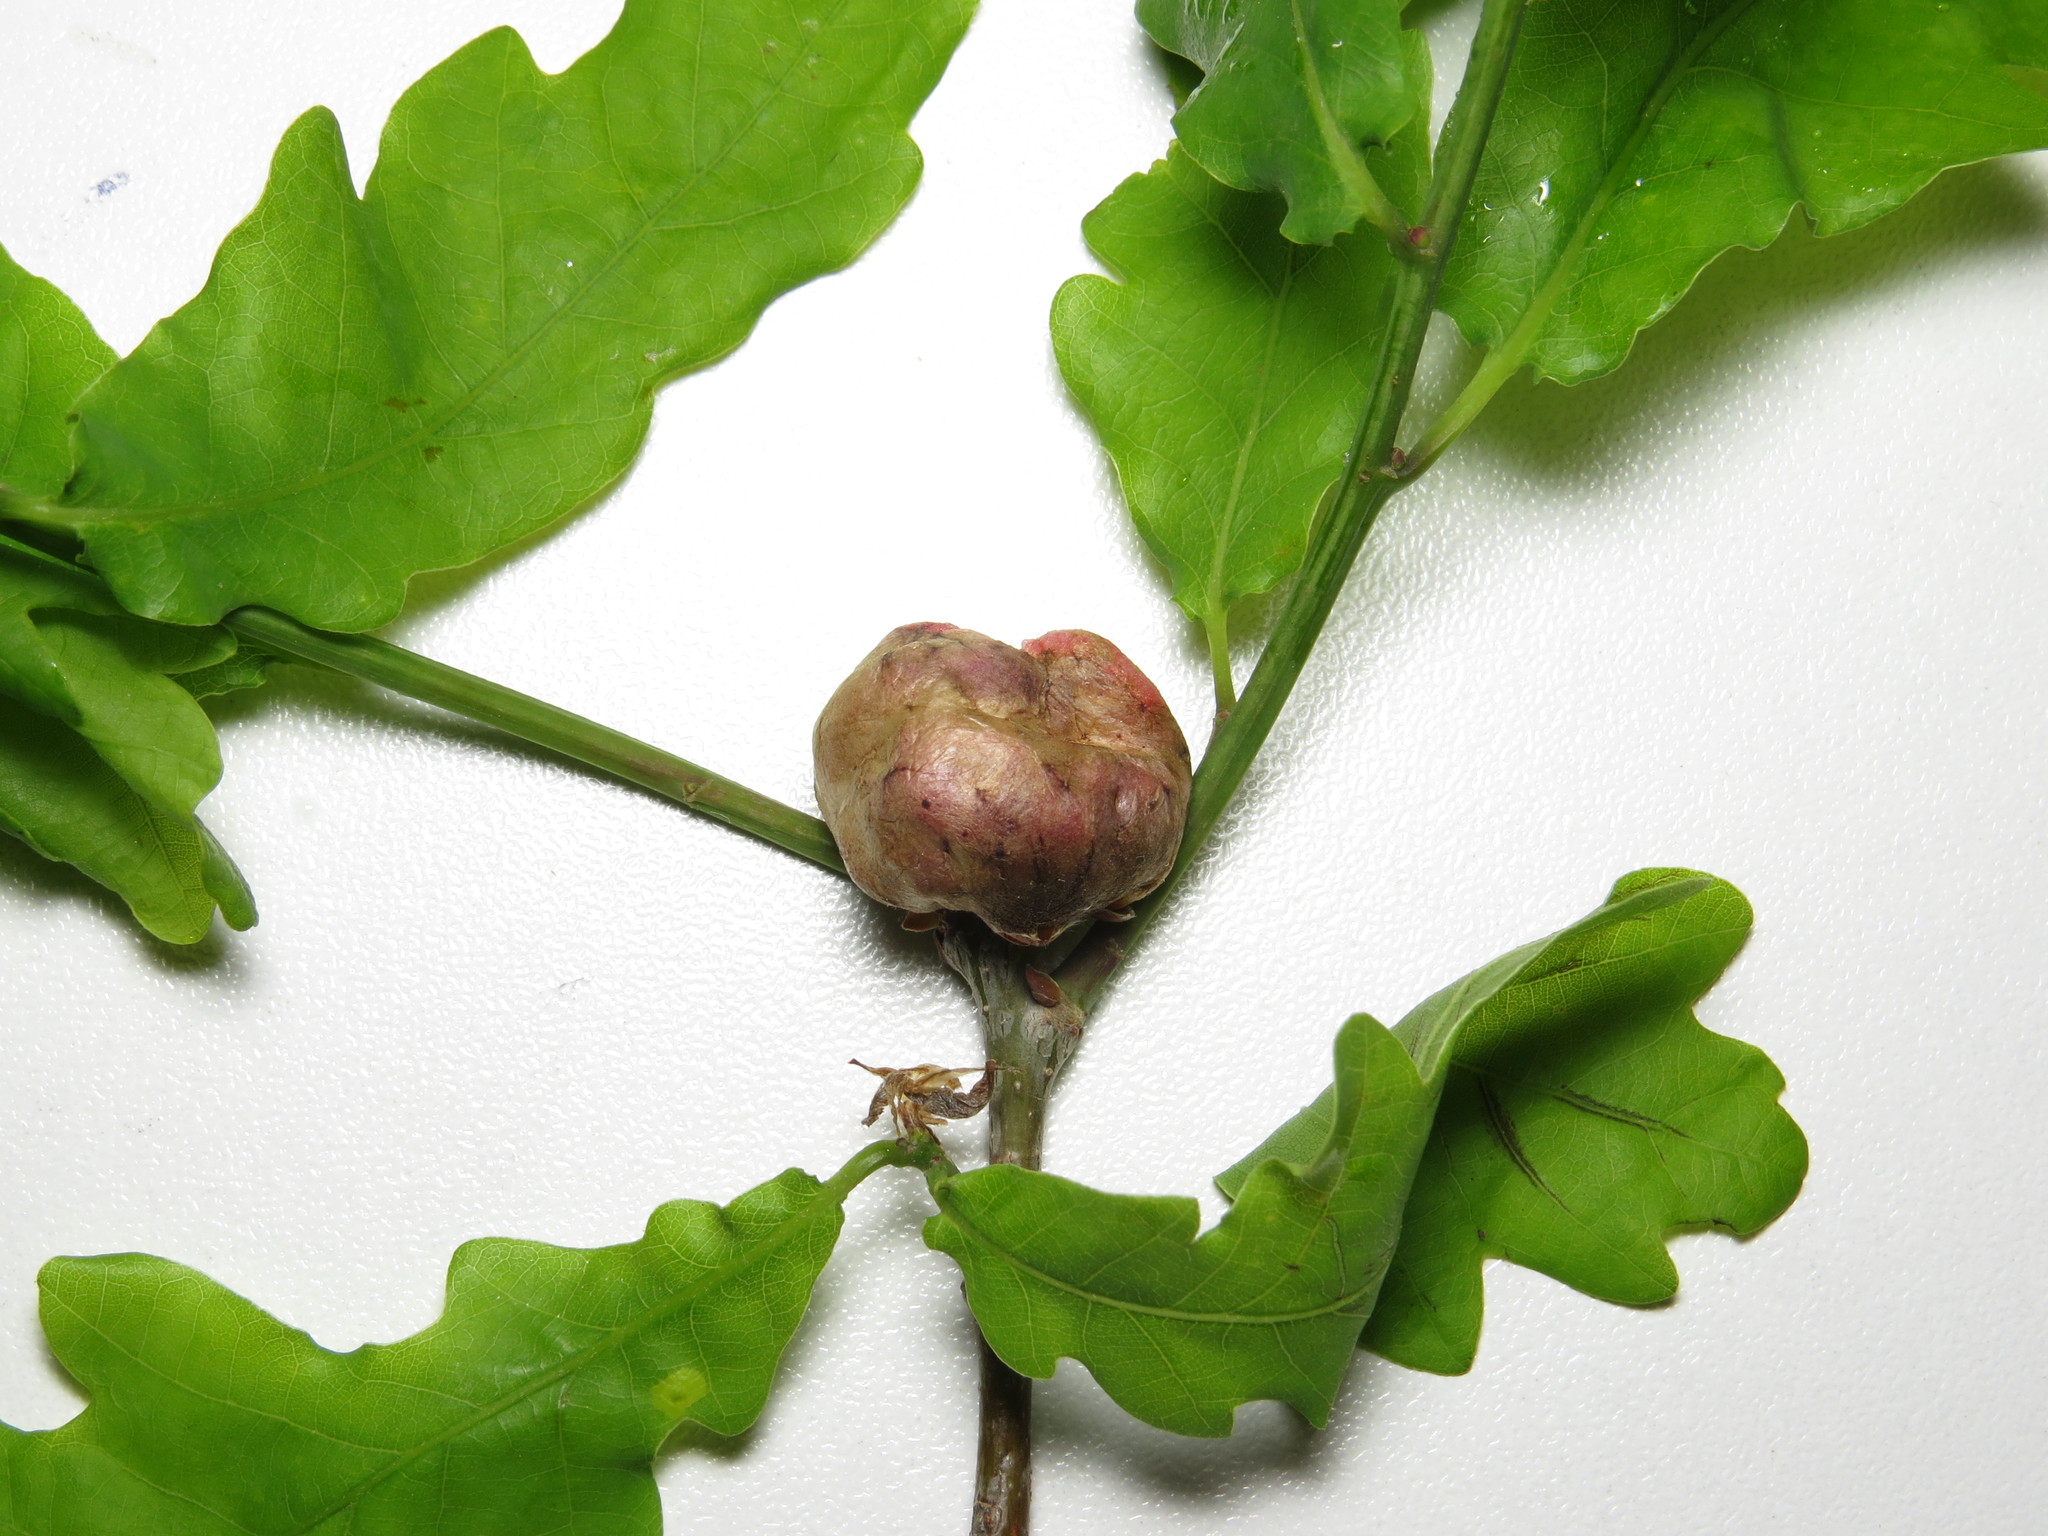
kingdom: Animalia
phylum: Arthropoda
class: Insecta
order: Hymenoptera
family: Cynipidae
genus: Biorhiza
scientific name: Biorhiza pallida
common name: Oak apple
